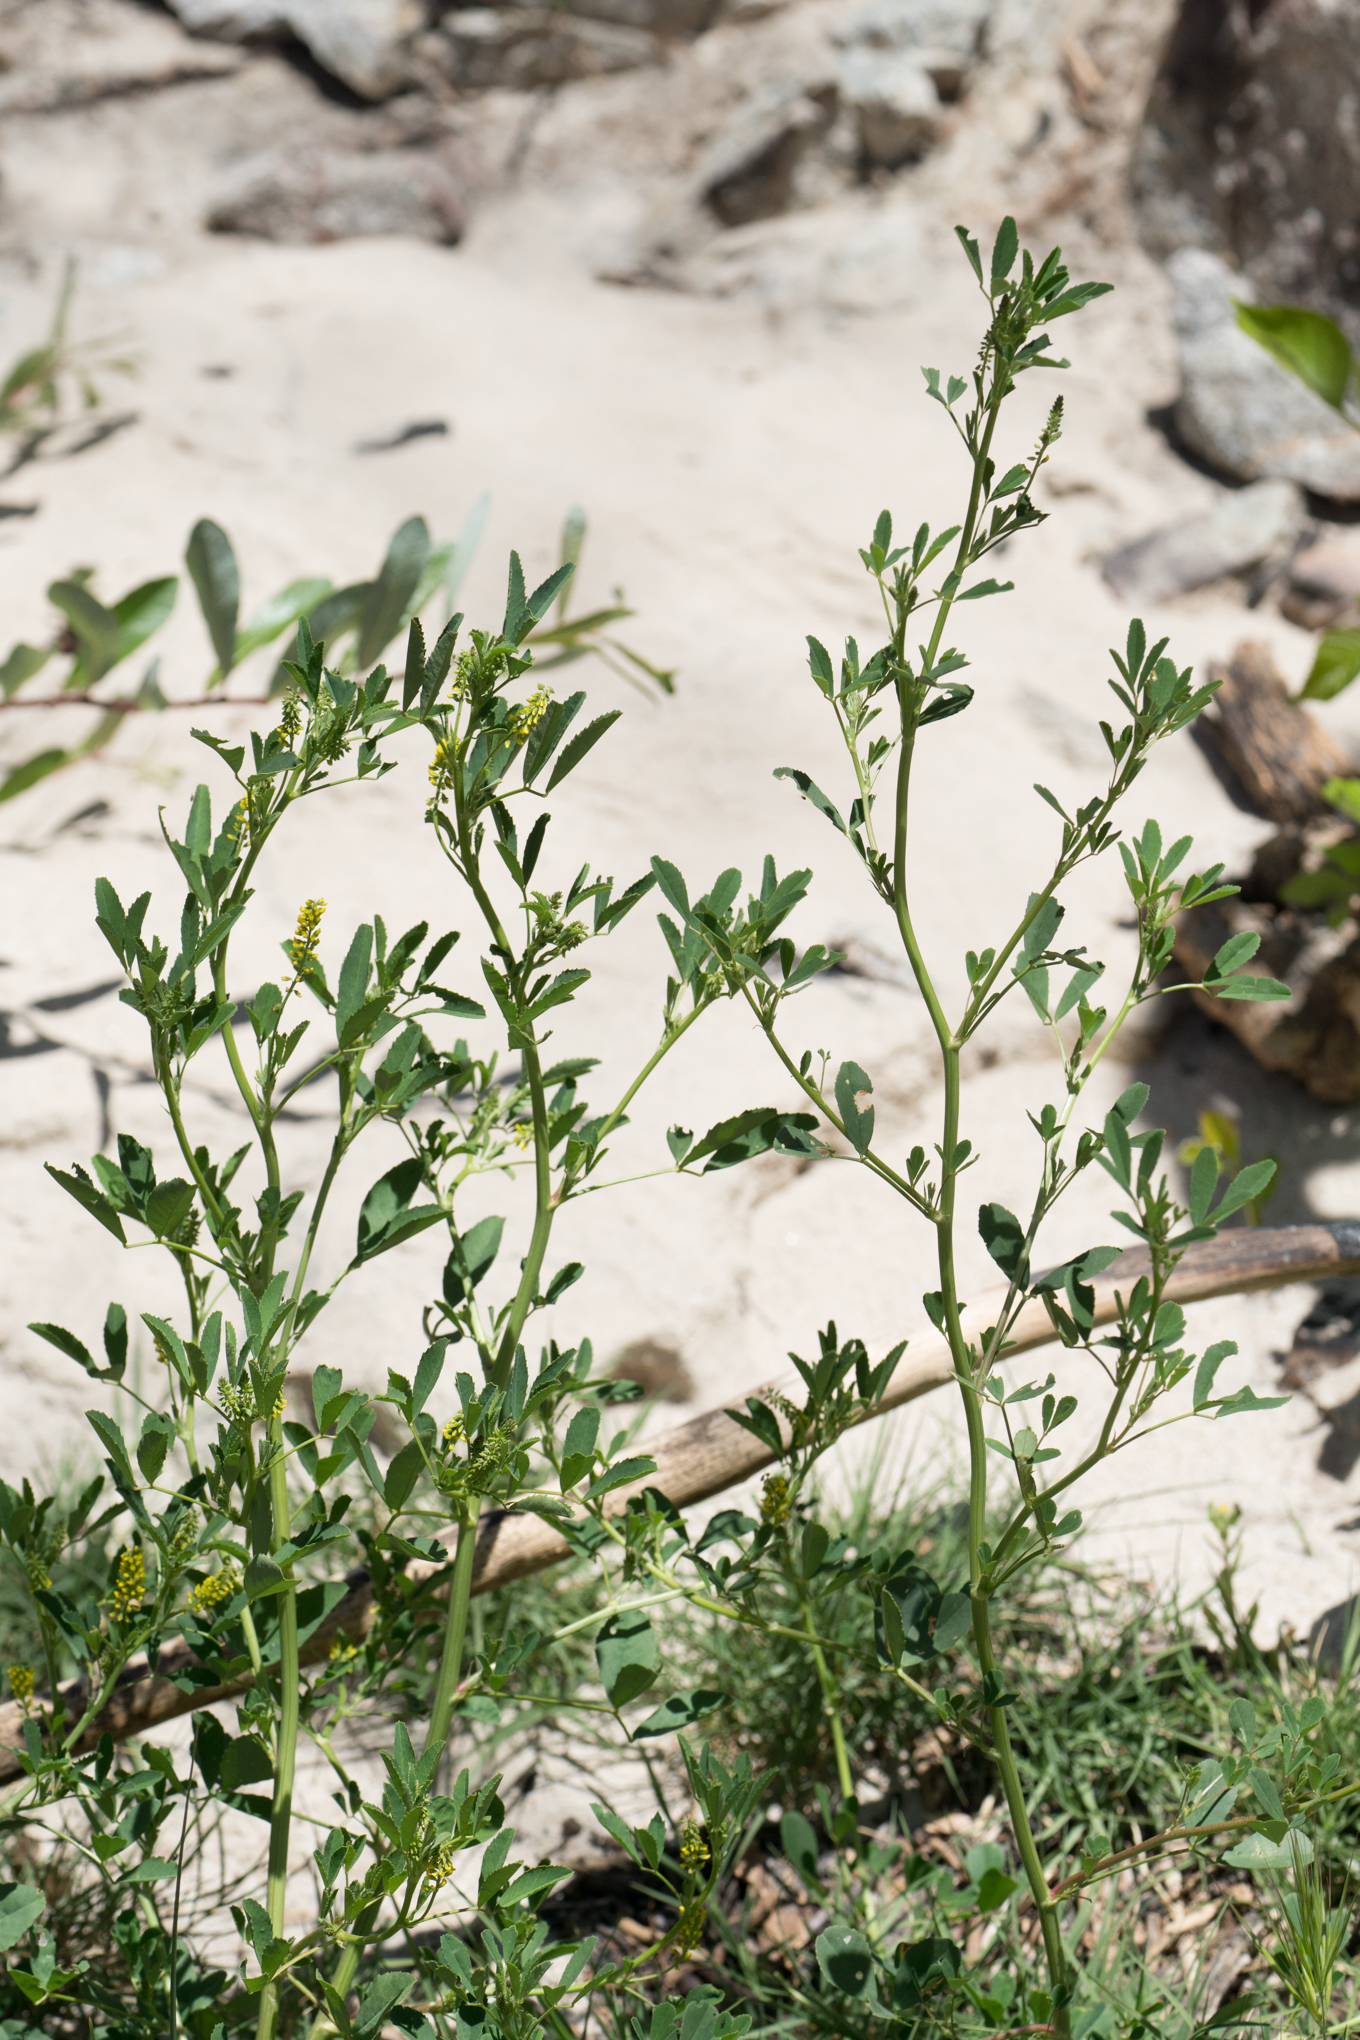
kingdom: Plantae
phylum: Tracheophyta
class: Magnoliopsida
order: Fabales
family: Fabaceae
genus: Melilotus
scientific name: Melilotus indicus
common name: Small melilot
